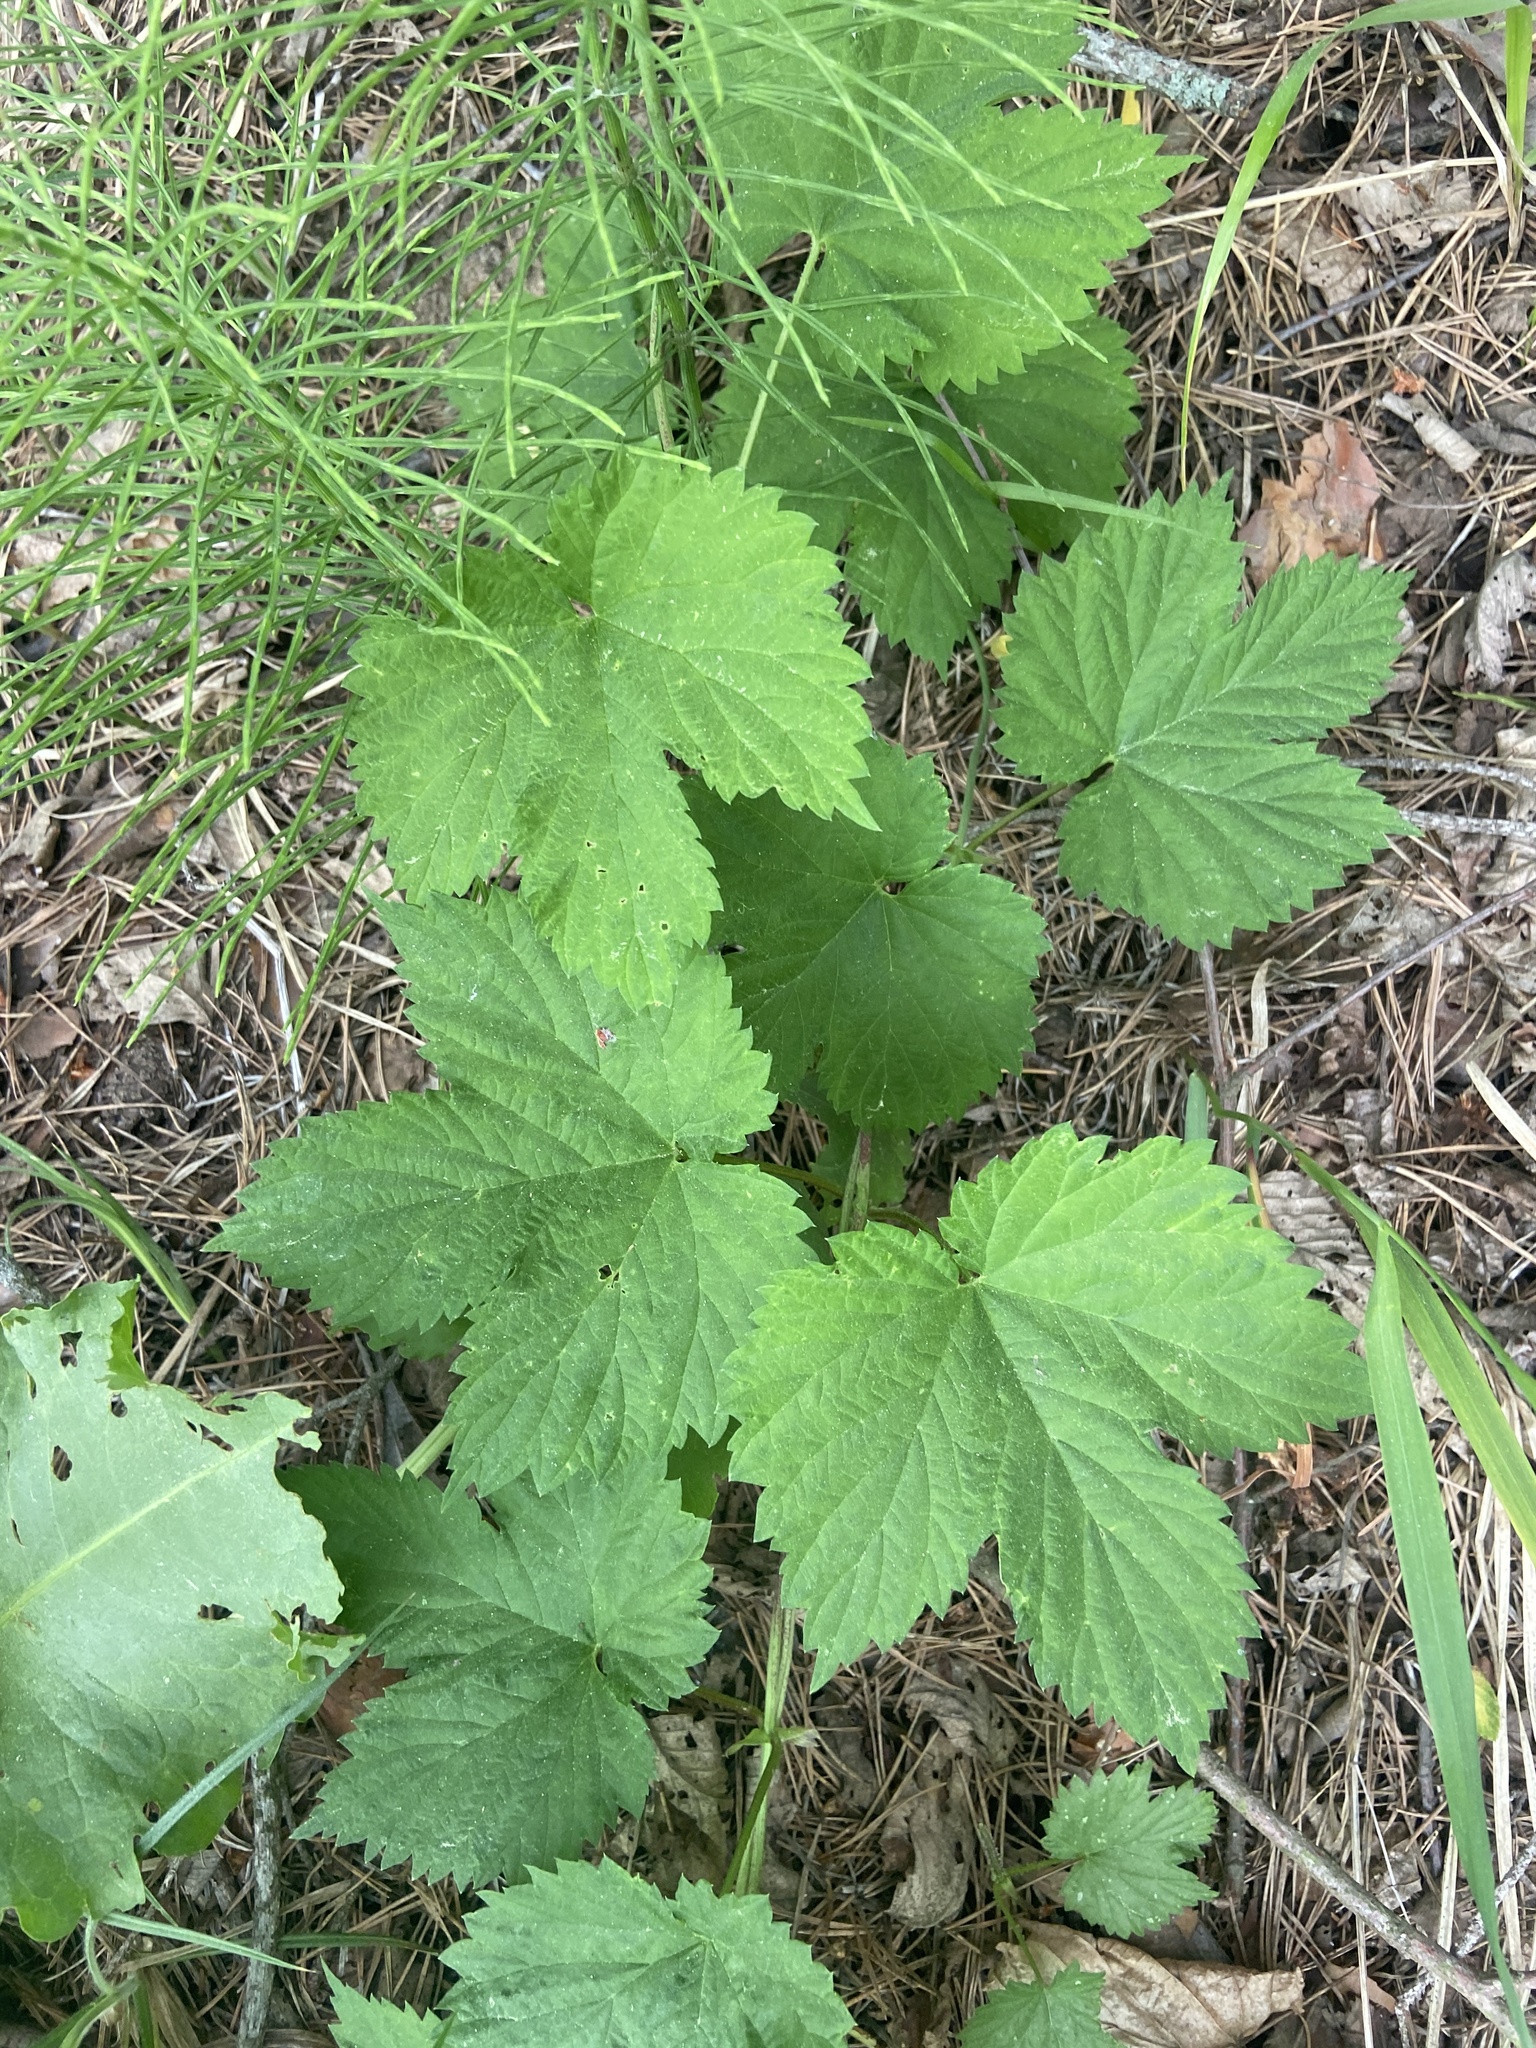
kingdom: Plantae
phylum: Tracheophyta
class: Magnoliopsida
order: Rosales
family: Cannabaceae
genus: Humulus
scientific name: Humulus lupulus
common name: Hop
